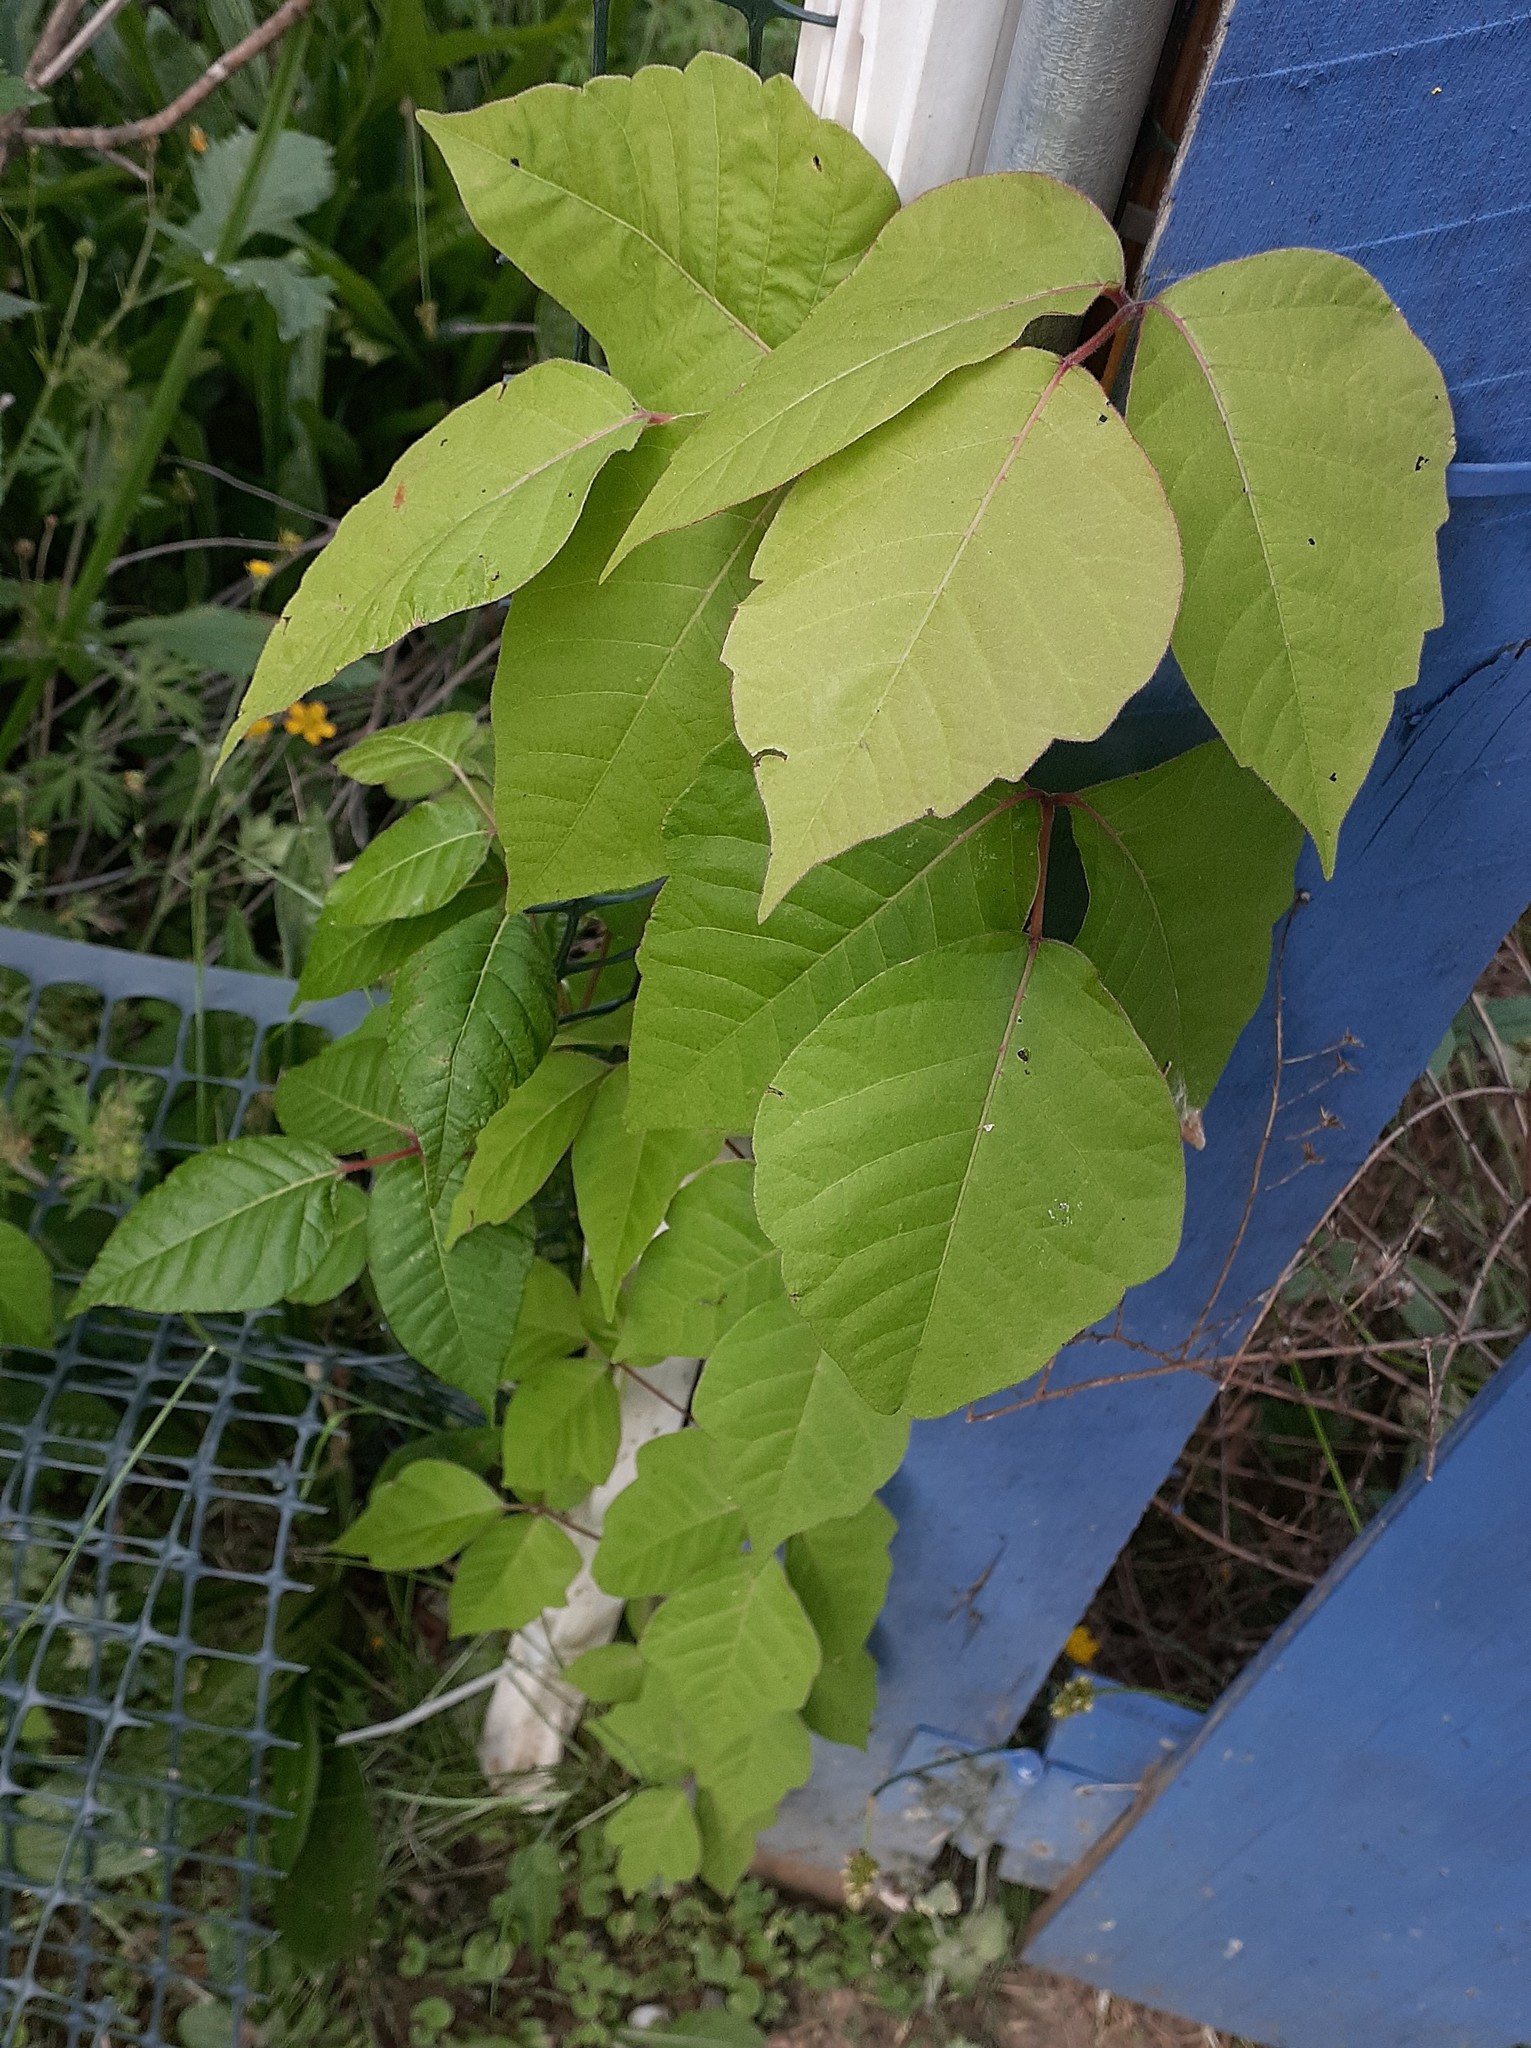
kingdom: Plantae
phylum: Tracheophyta
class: Magnoliopsida
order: Sapindales
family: Anacardiaceae
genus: Toxicodendron
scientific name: Toxicodendron radicans
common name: Poison ivy
